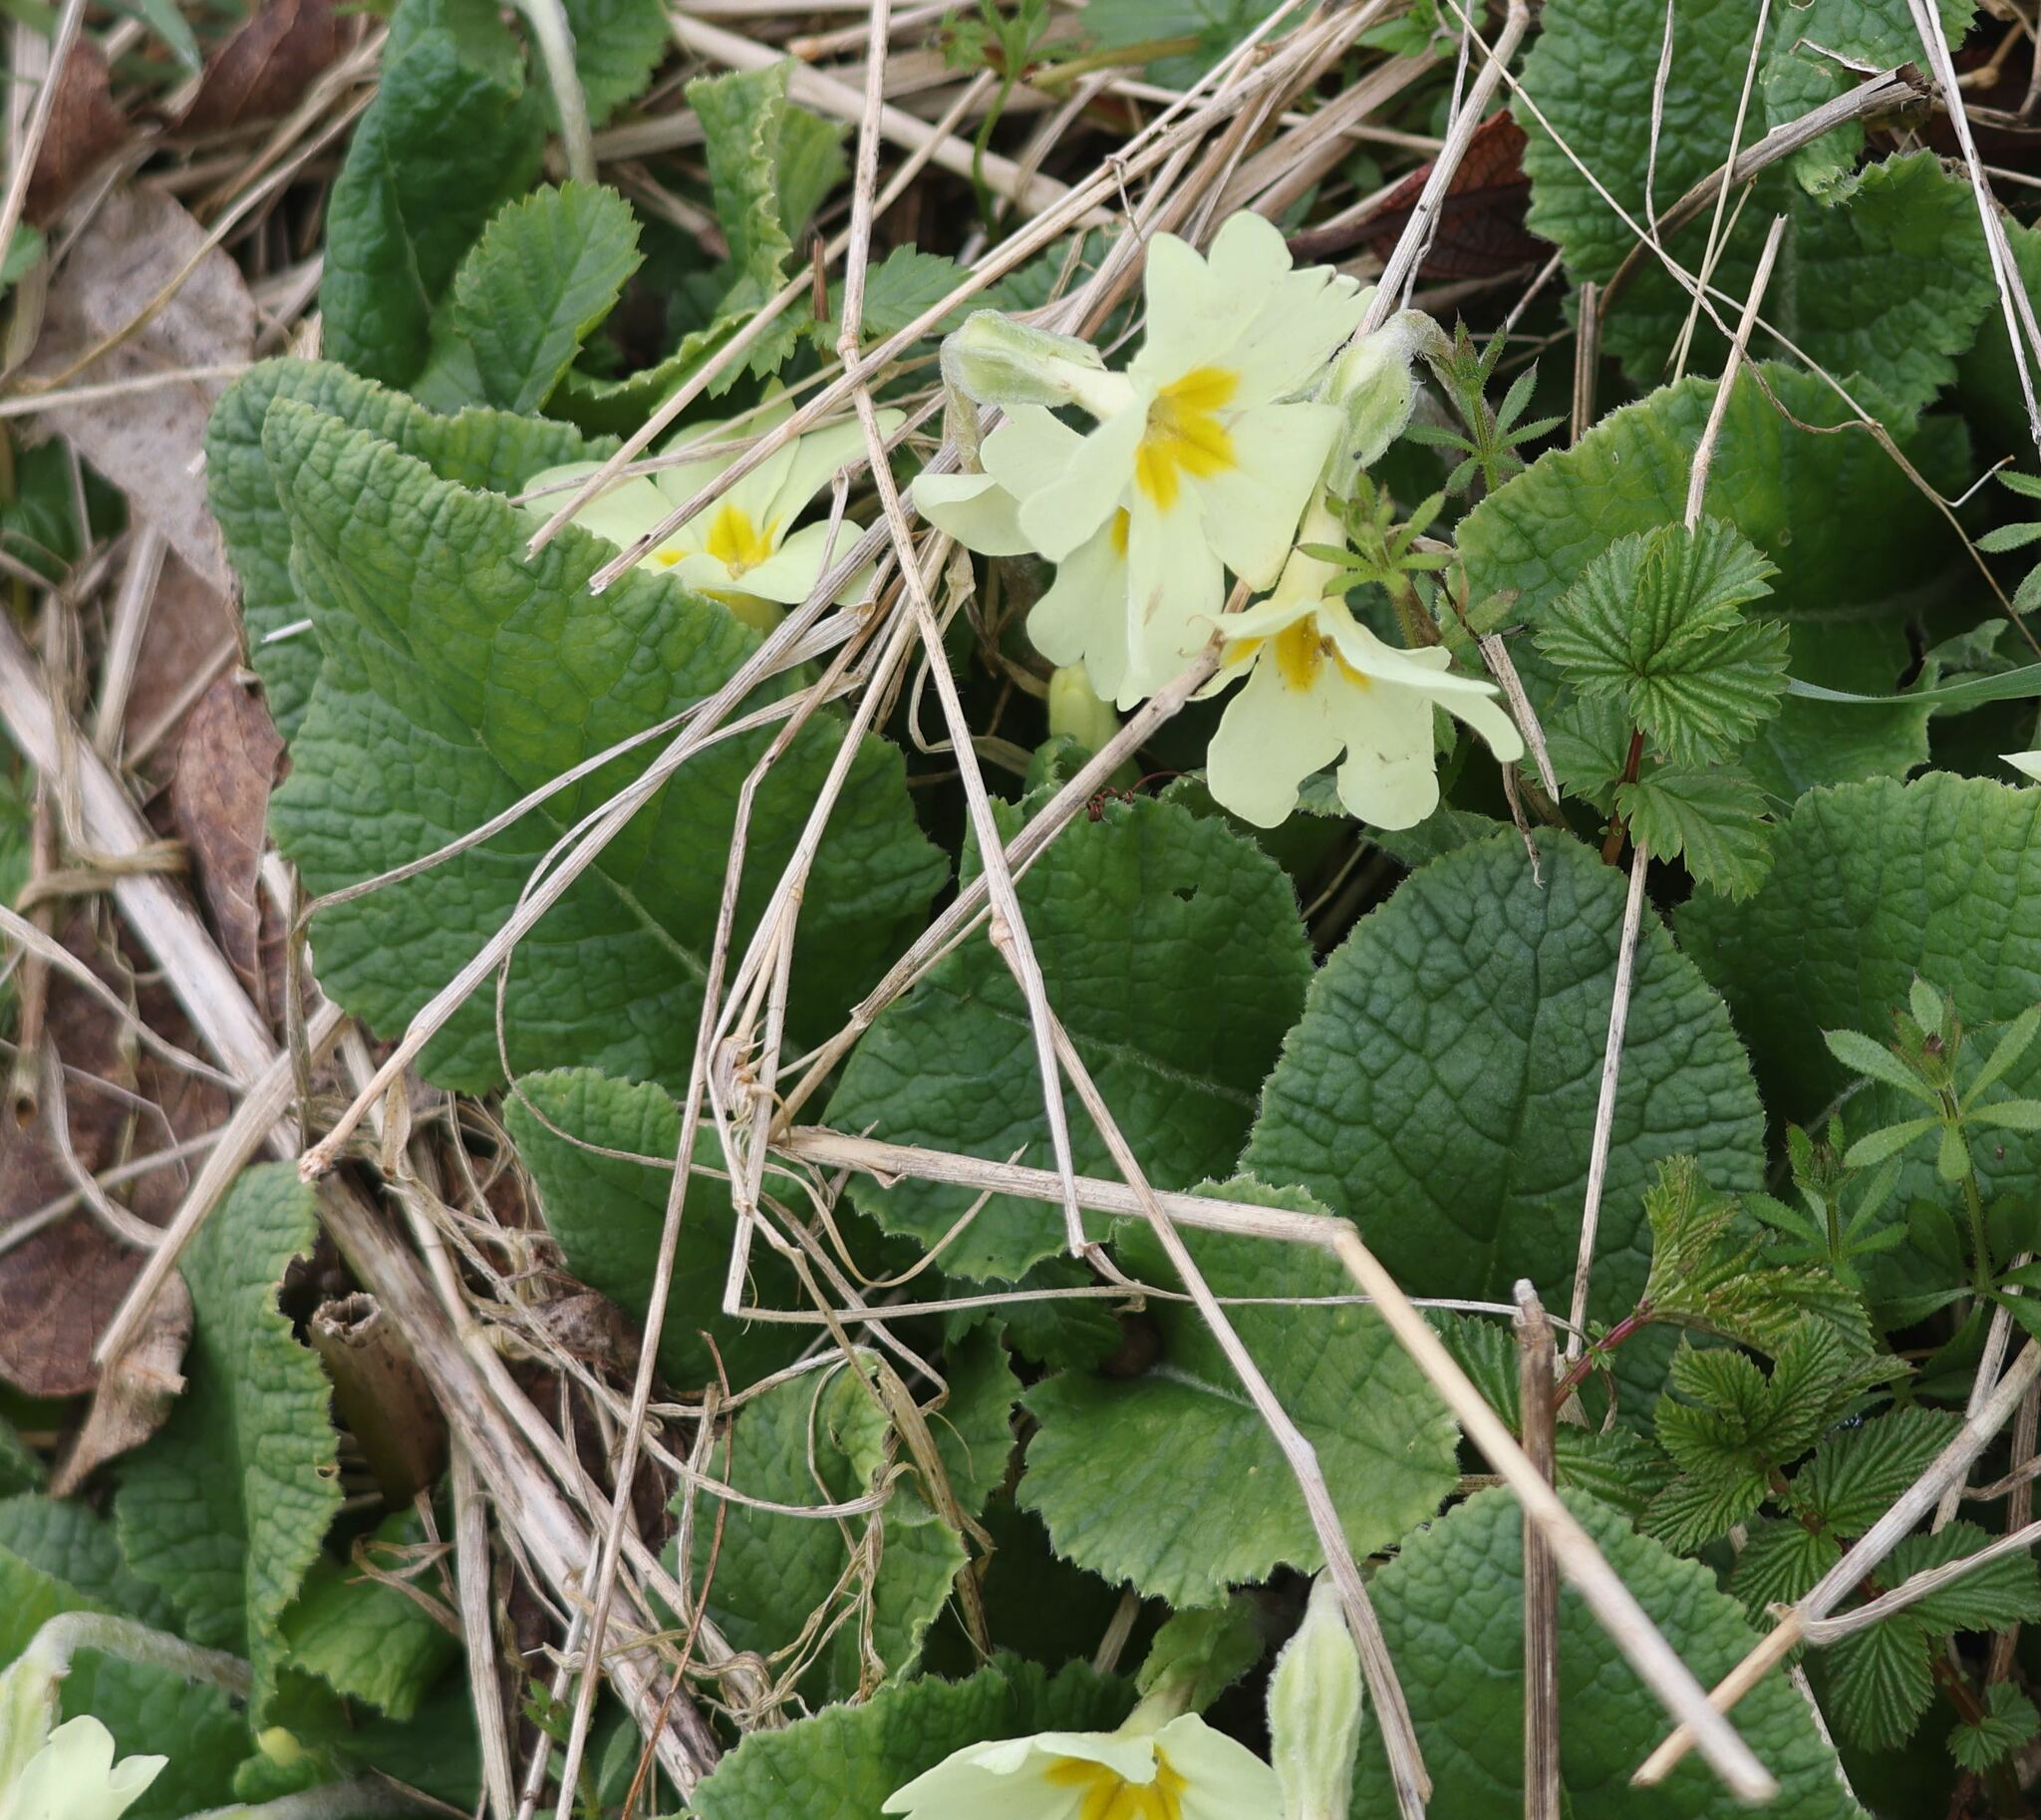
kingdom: Plantae
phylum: Tracheophyta
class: Magnoliopsida
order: Ericales
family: Primulaceae
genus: Primula
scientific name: Primula vulgaris
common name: Primrose
